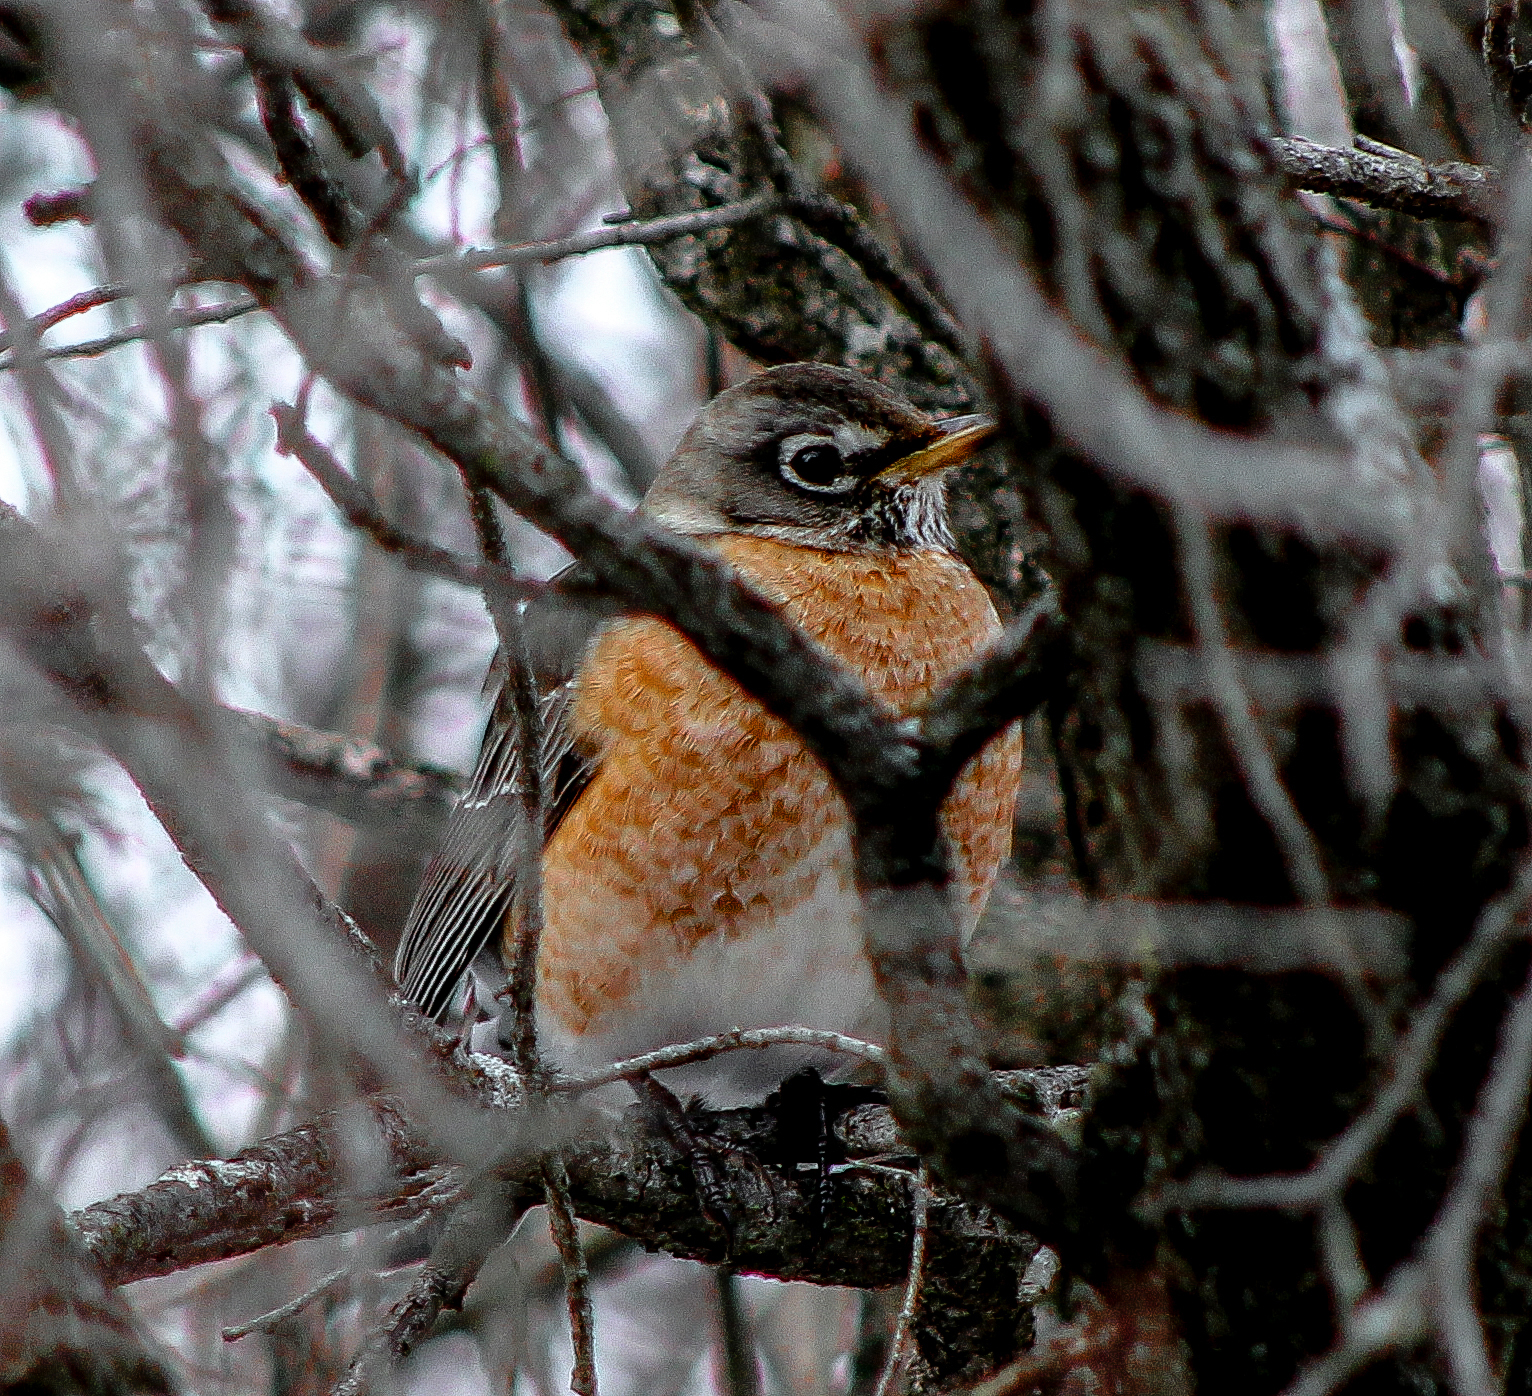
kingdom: Animalia
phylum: Chordata
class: Aves
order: Passeriformes
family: Turdidae
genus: Turdus
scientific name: Turdus migratorius
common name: American robin
